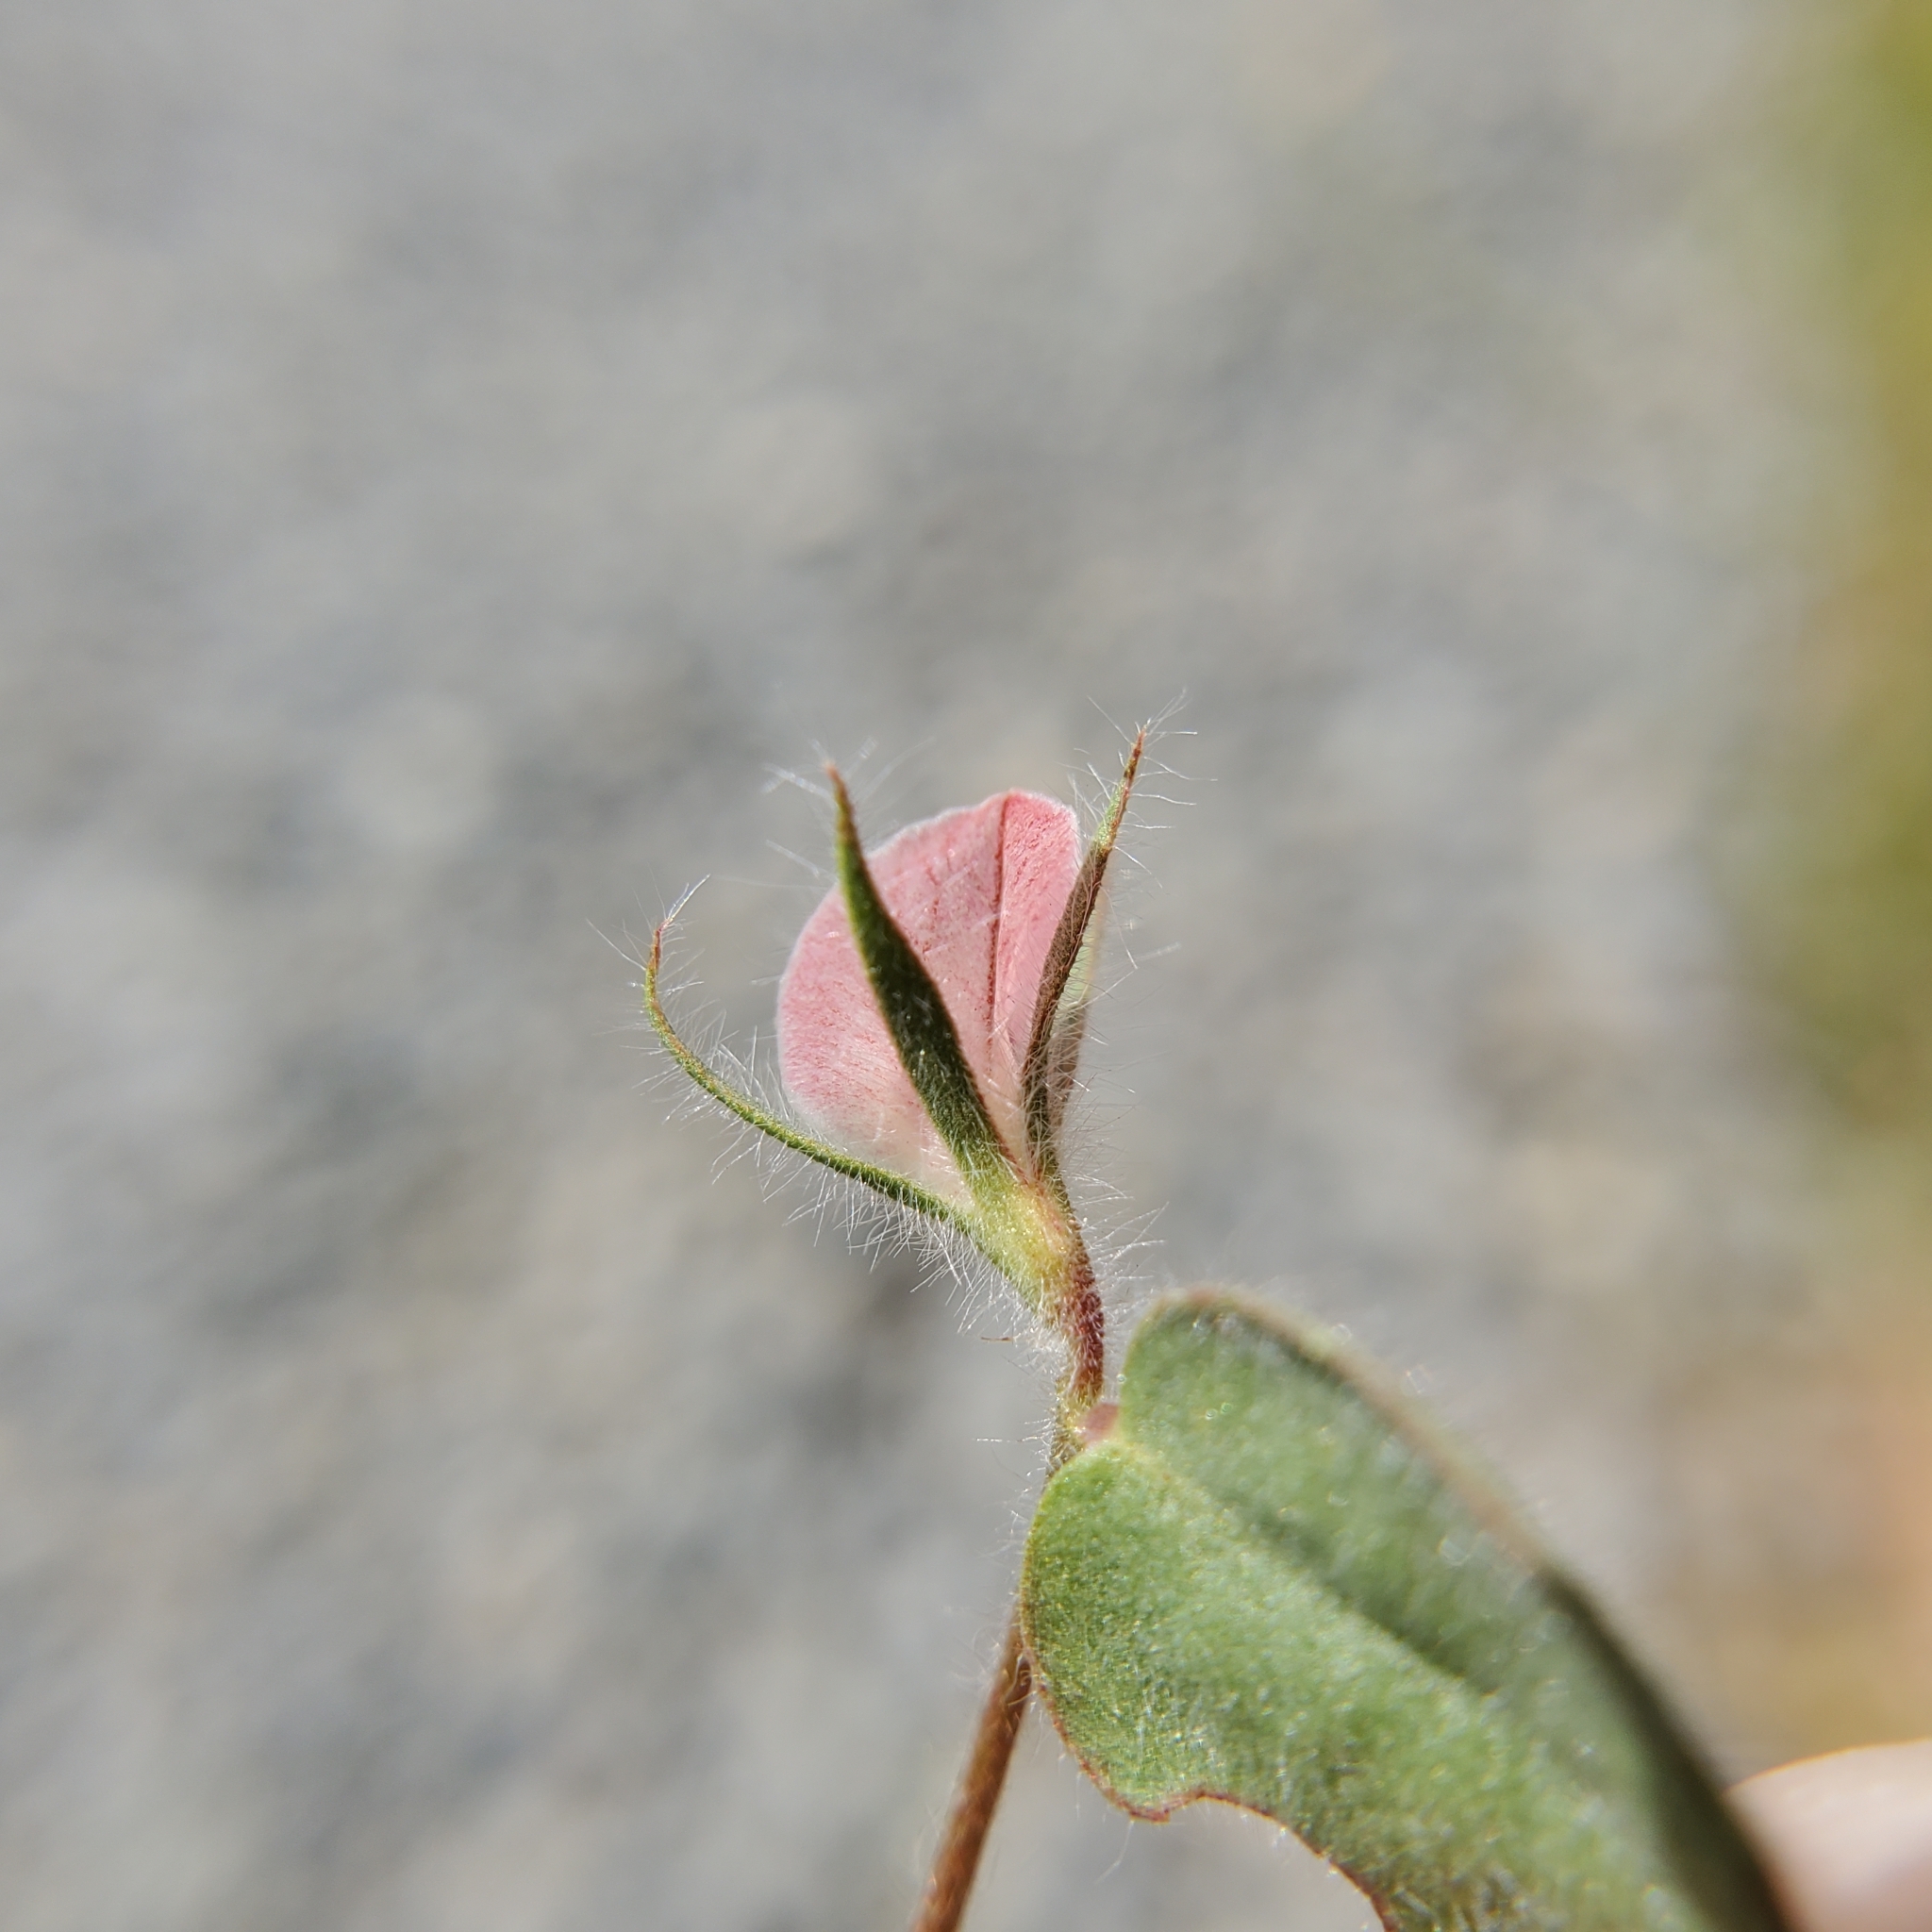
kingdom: Plantae
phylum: Tracheophyta
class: Magnoliopsida
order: Fabales
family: Fabaceae
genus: Acmispon
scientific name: Acmispon americanus
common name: American bird's-foot trefoil
